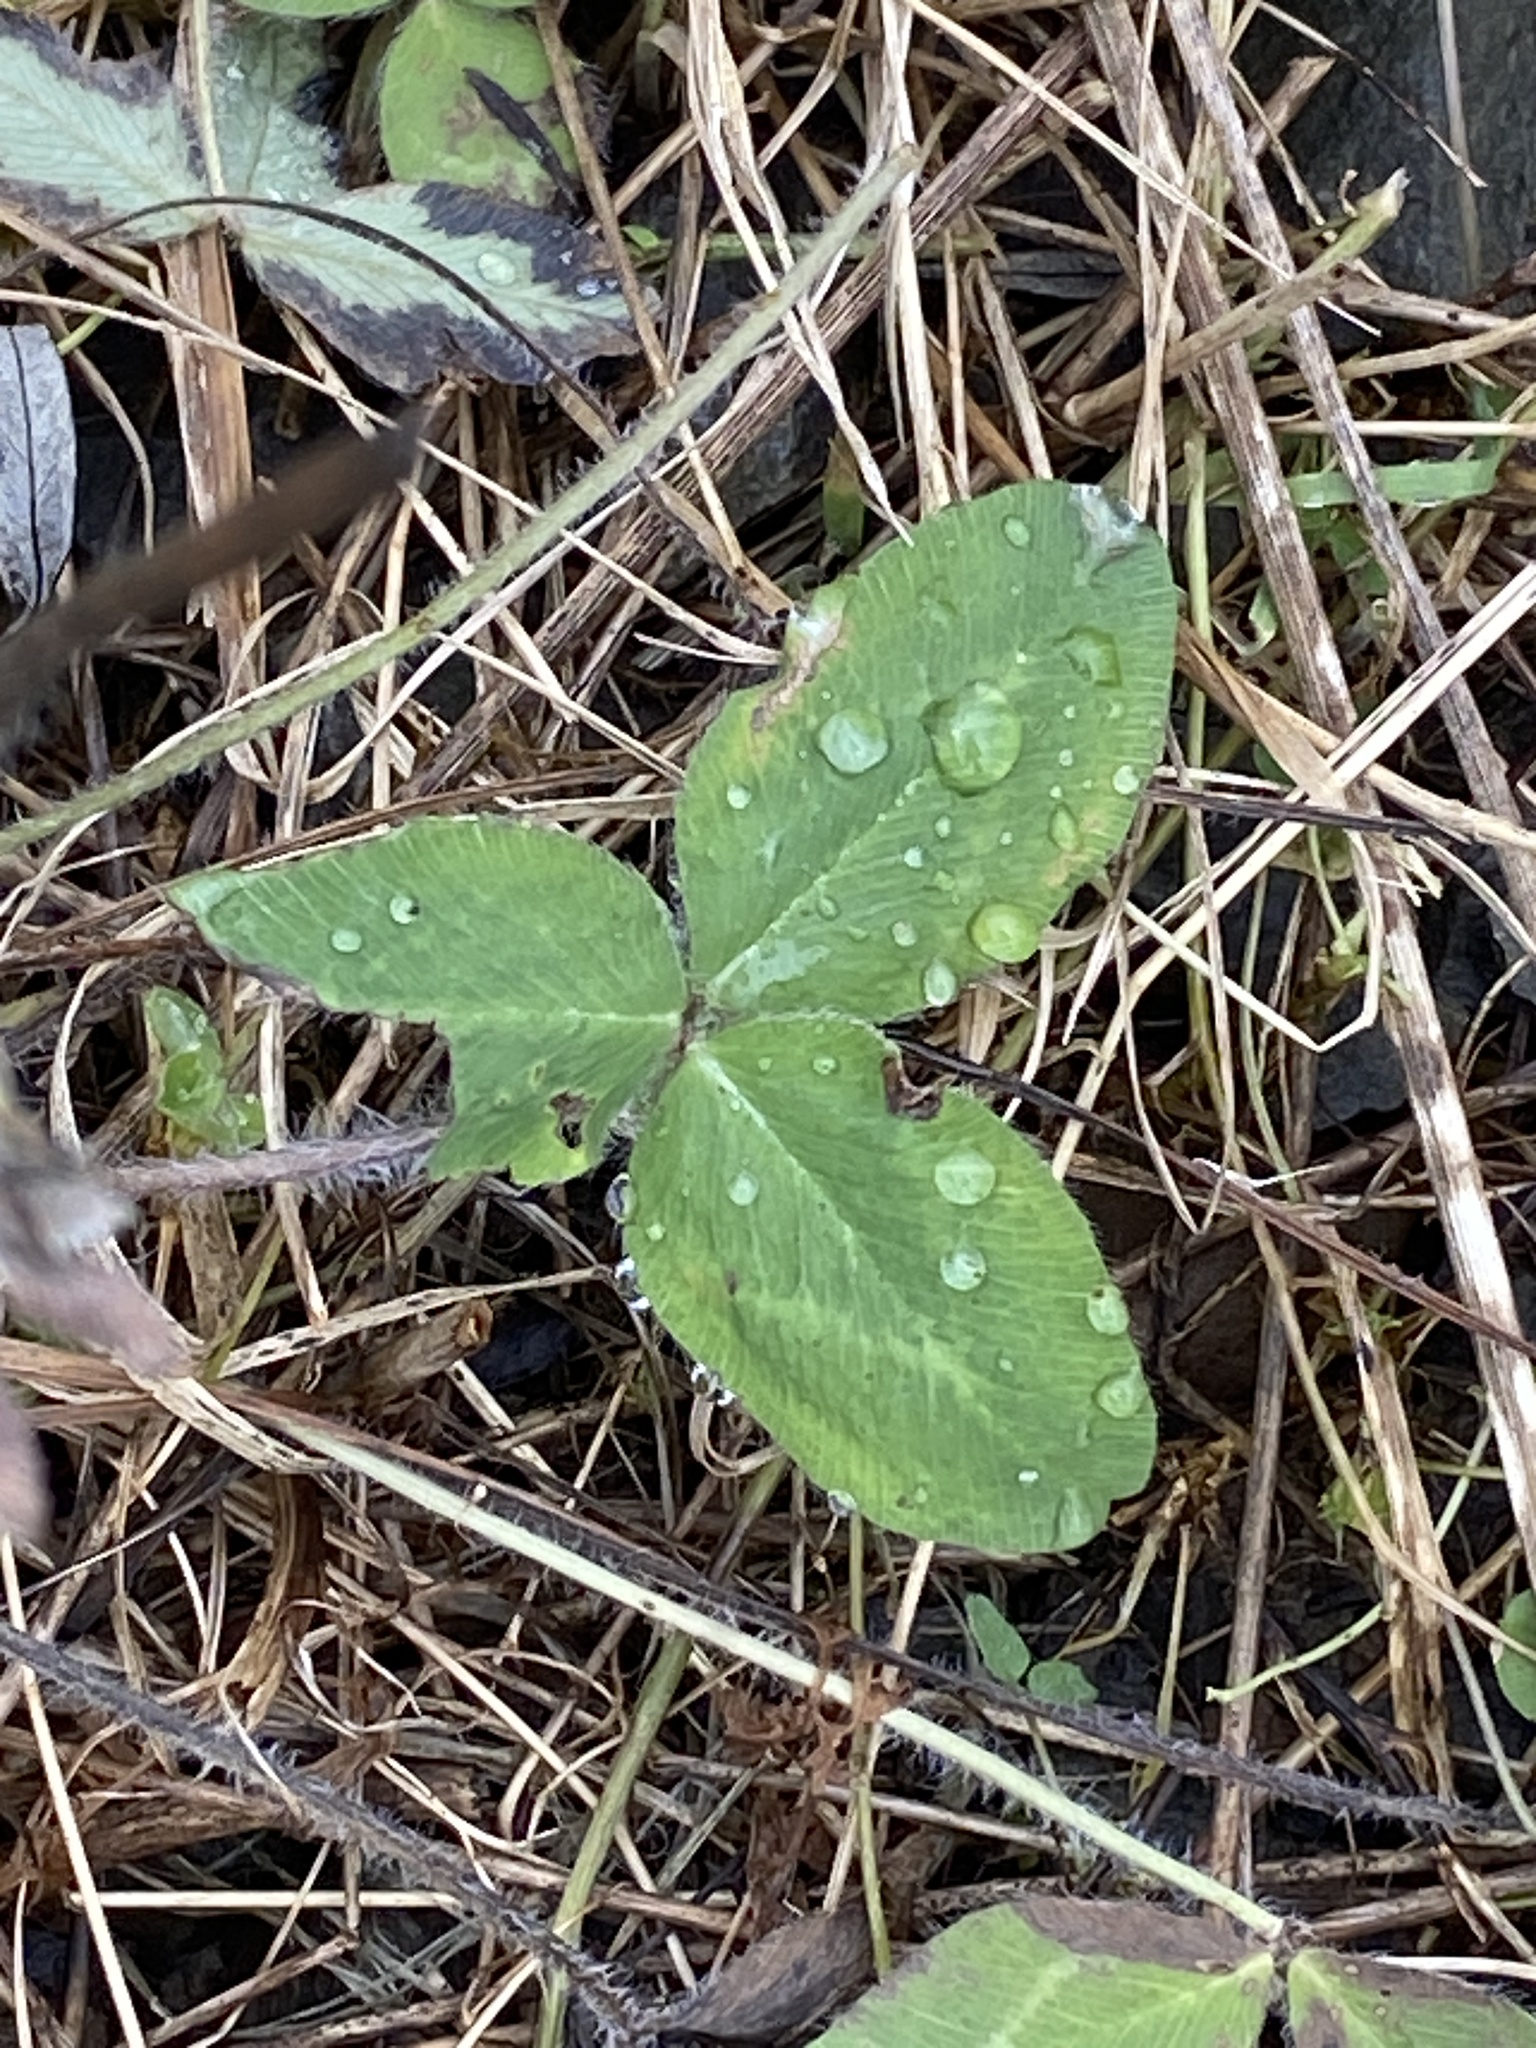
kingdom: Plantae
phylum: Tracheophyta
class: Magnoliopsida
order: Fabales
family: Fabaceae
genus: Trifolium
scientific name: Trifolium pratense
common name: Red clover
